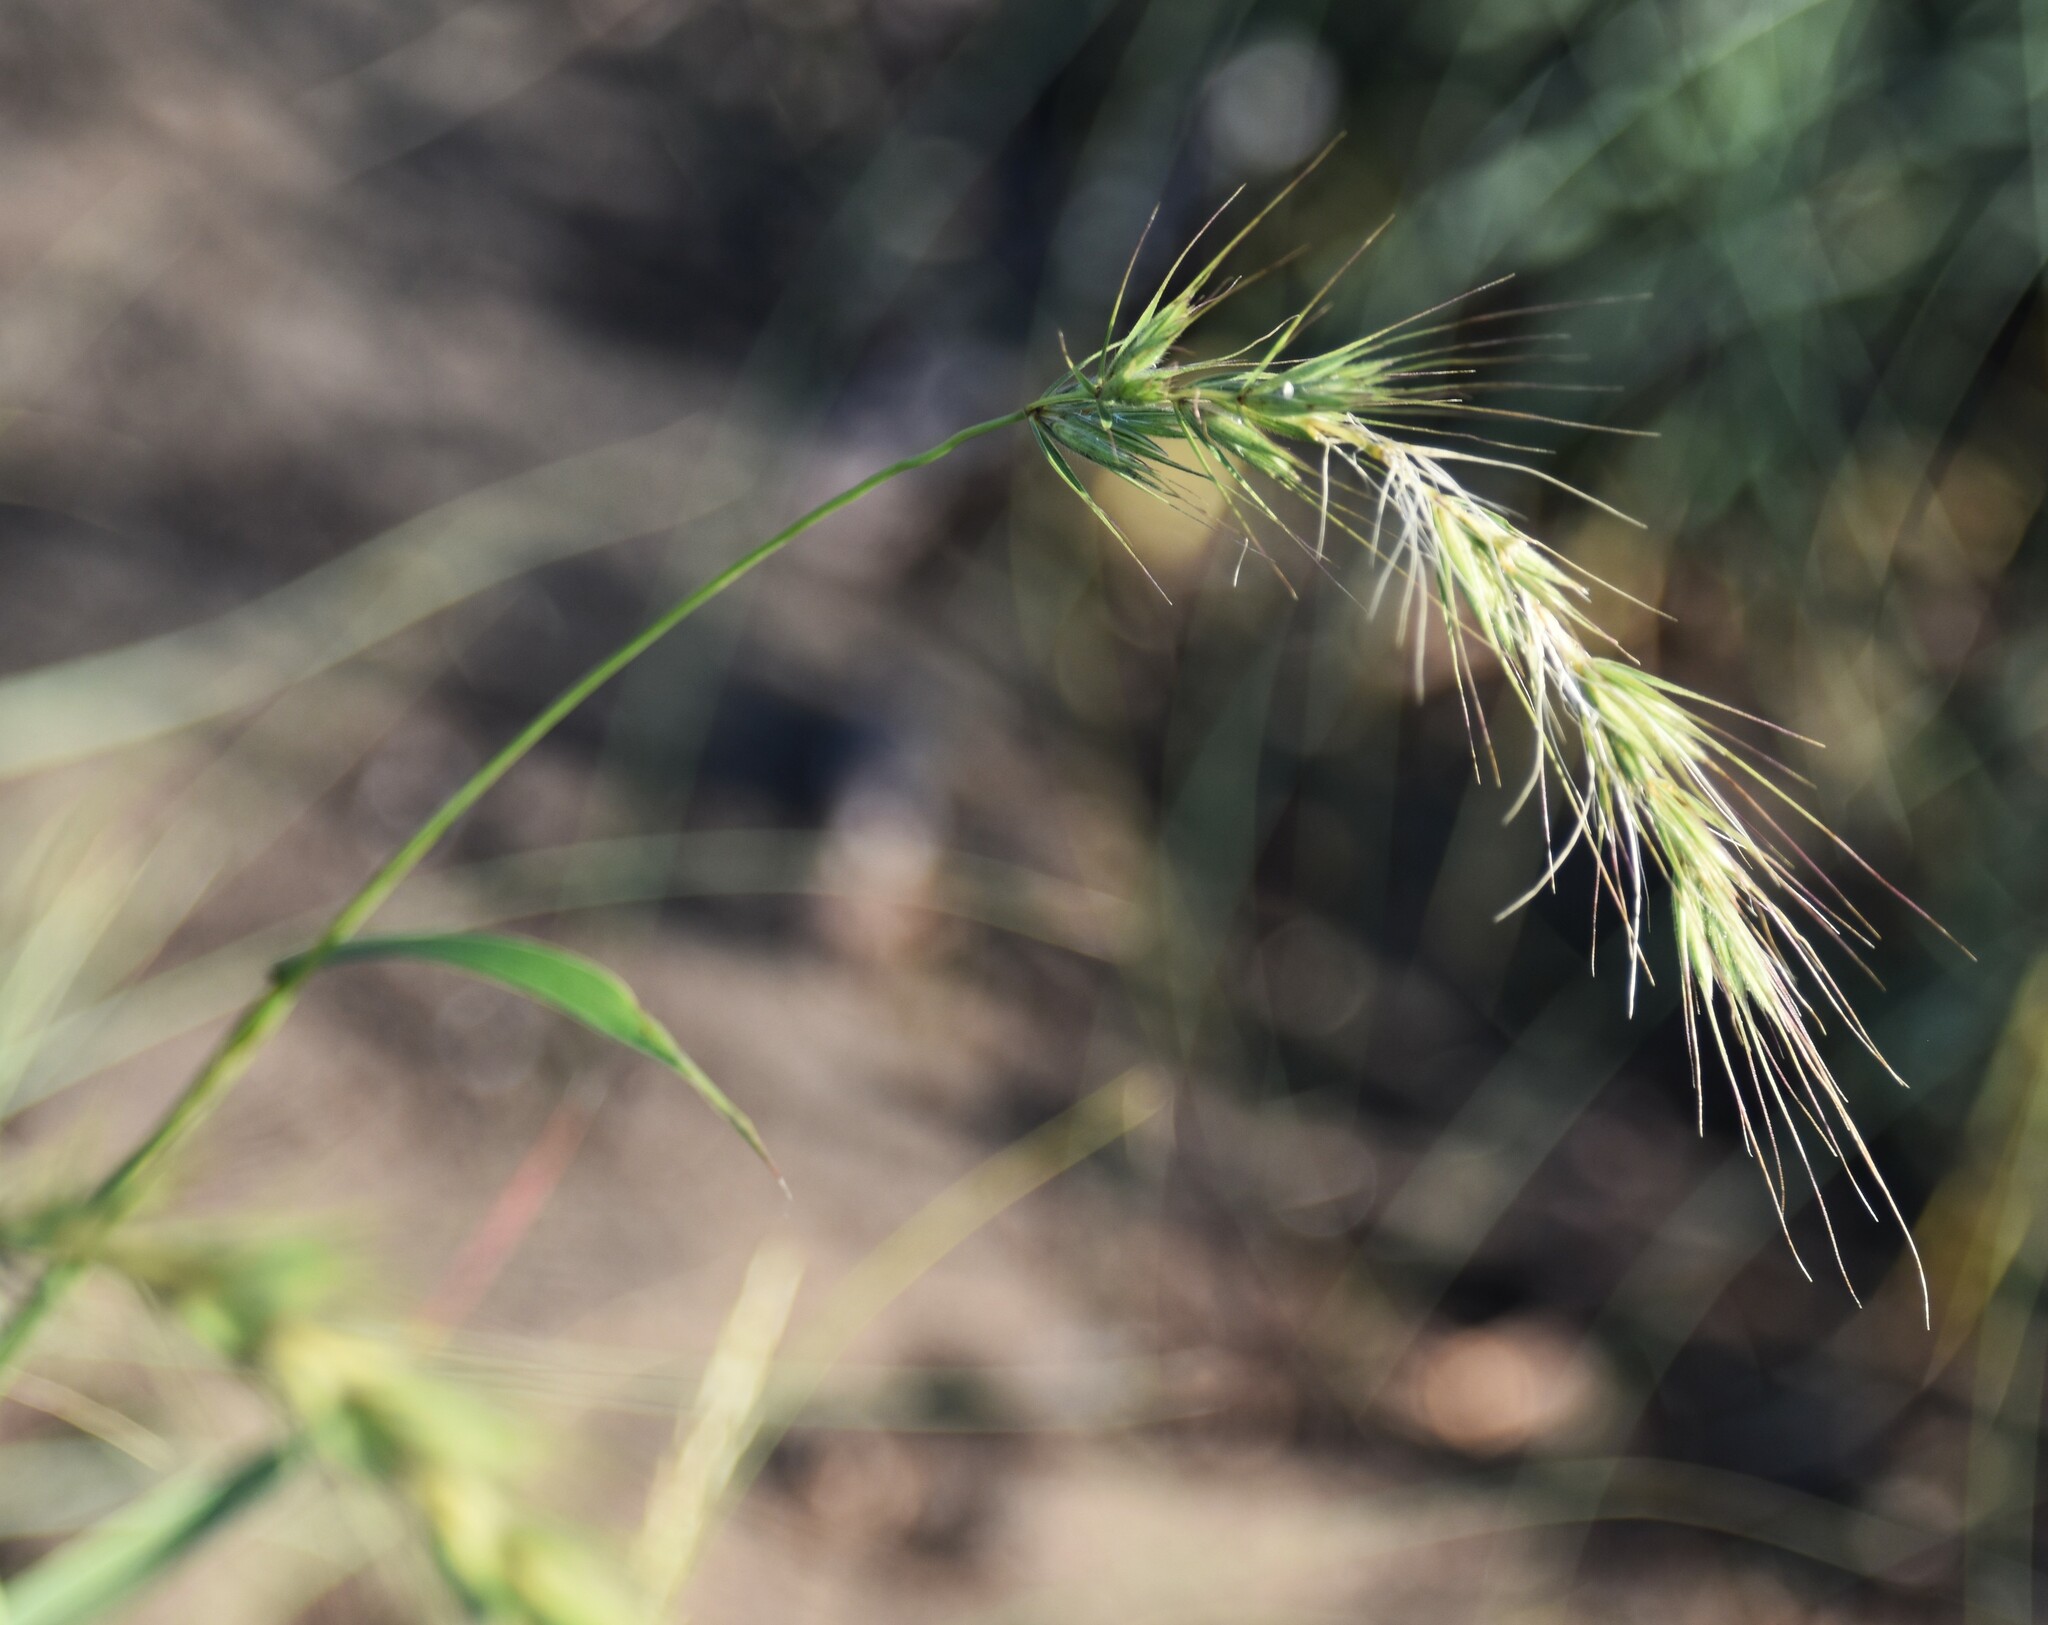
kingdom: Plantae
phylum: Tracheophyta
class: Liliopsida
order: Poales
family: Poaceae
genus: Elymus
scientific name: Elymus canadensis
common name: Canada wild rye
